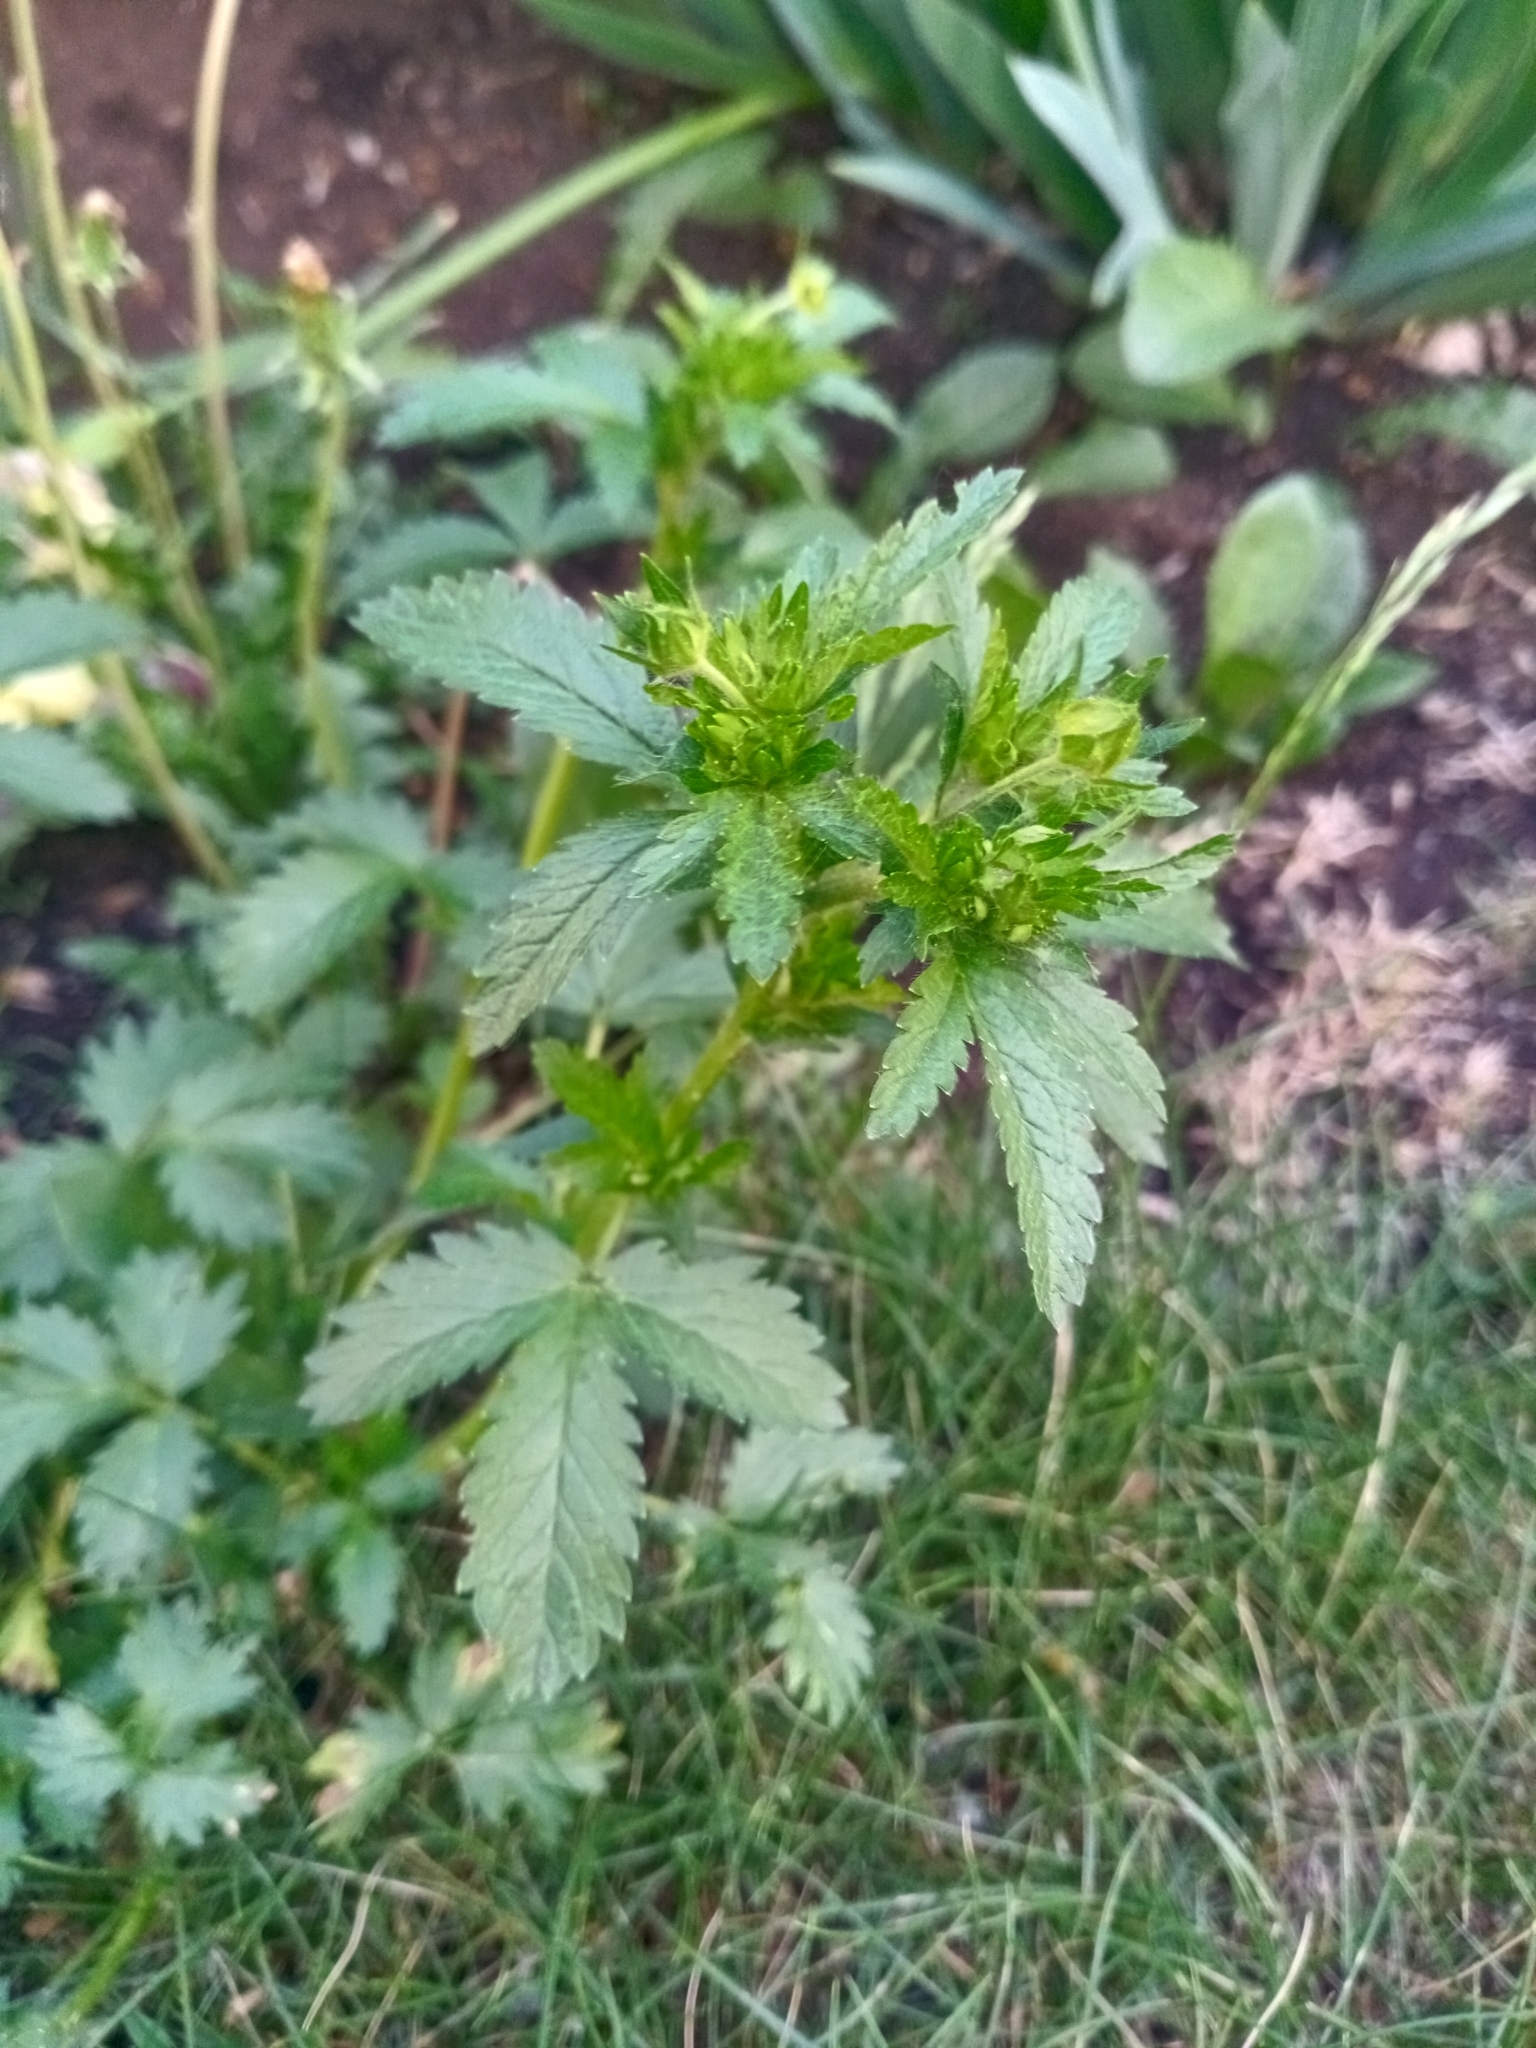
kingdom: Plantae
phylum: Tracheophyta
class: Magnoliopsida
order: Rosales
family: Rosaceae
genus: Potentilla
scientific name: Potentilla norvegica
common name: Ternate-leaved cinquefoil
